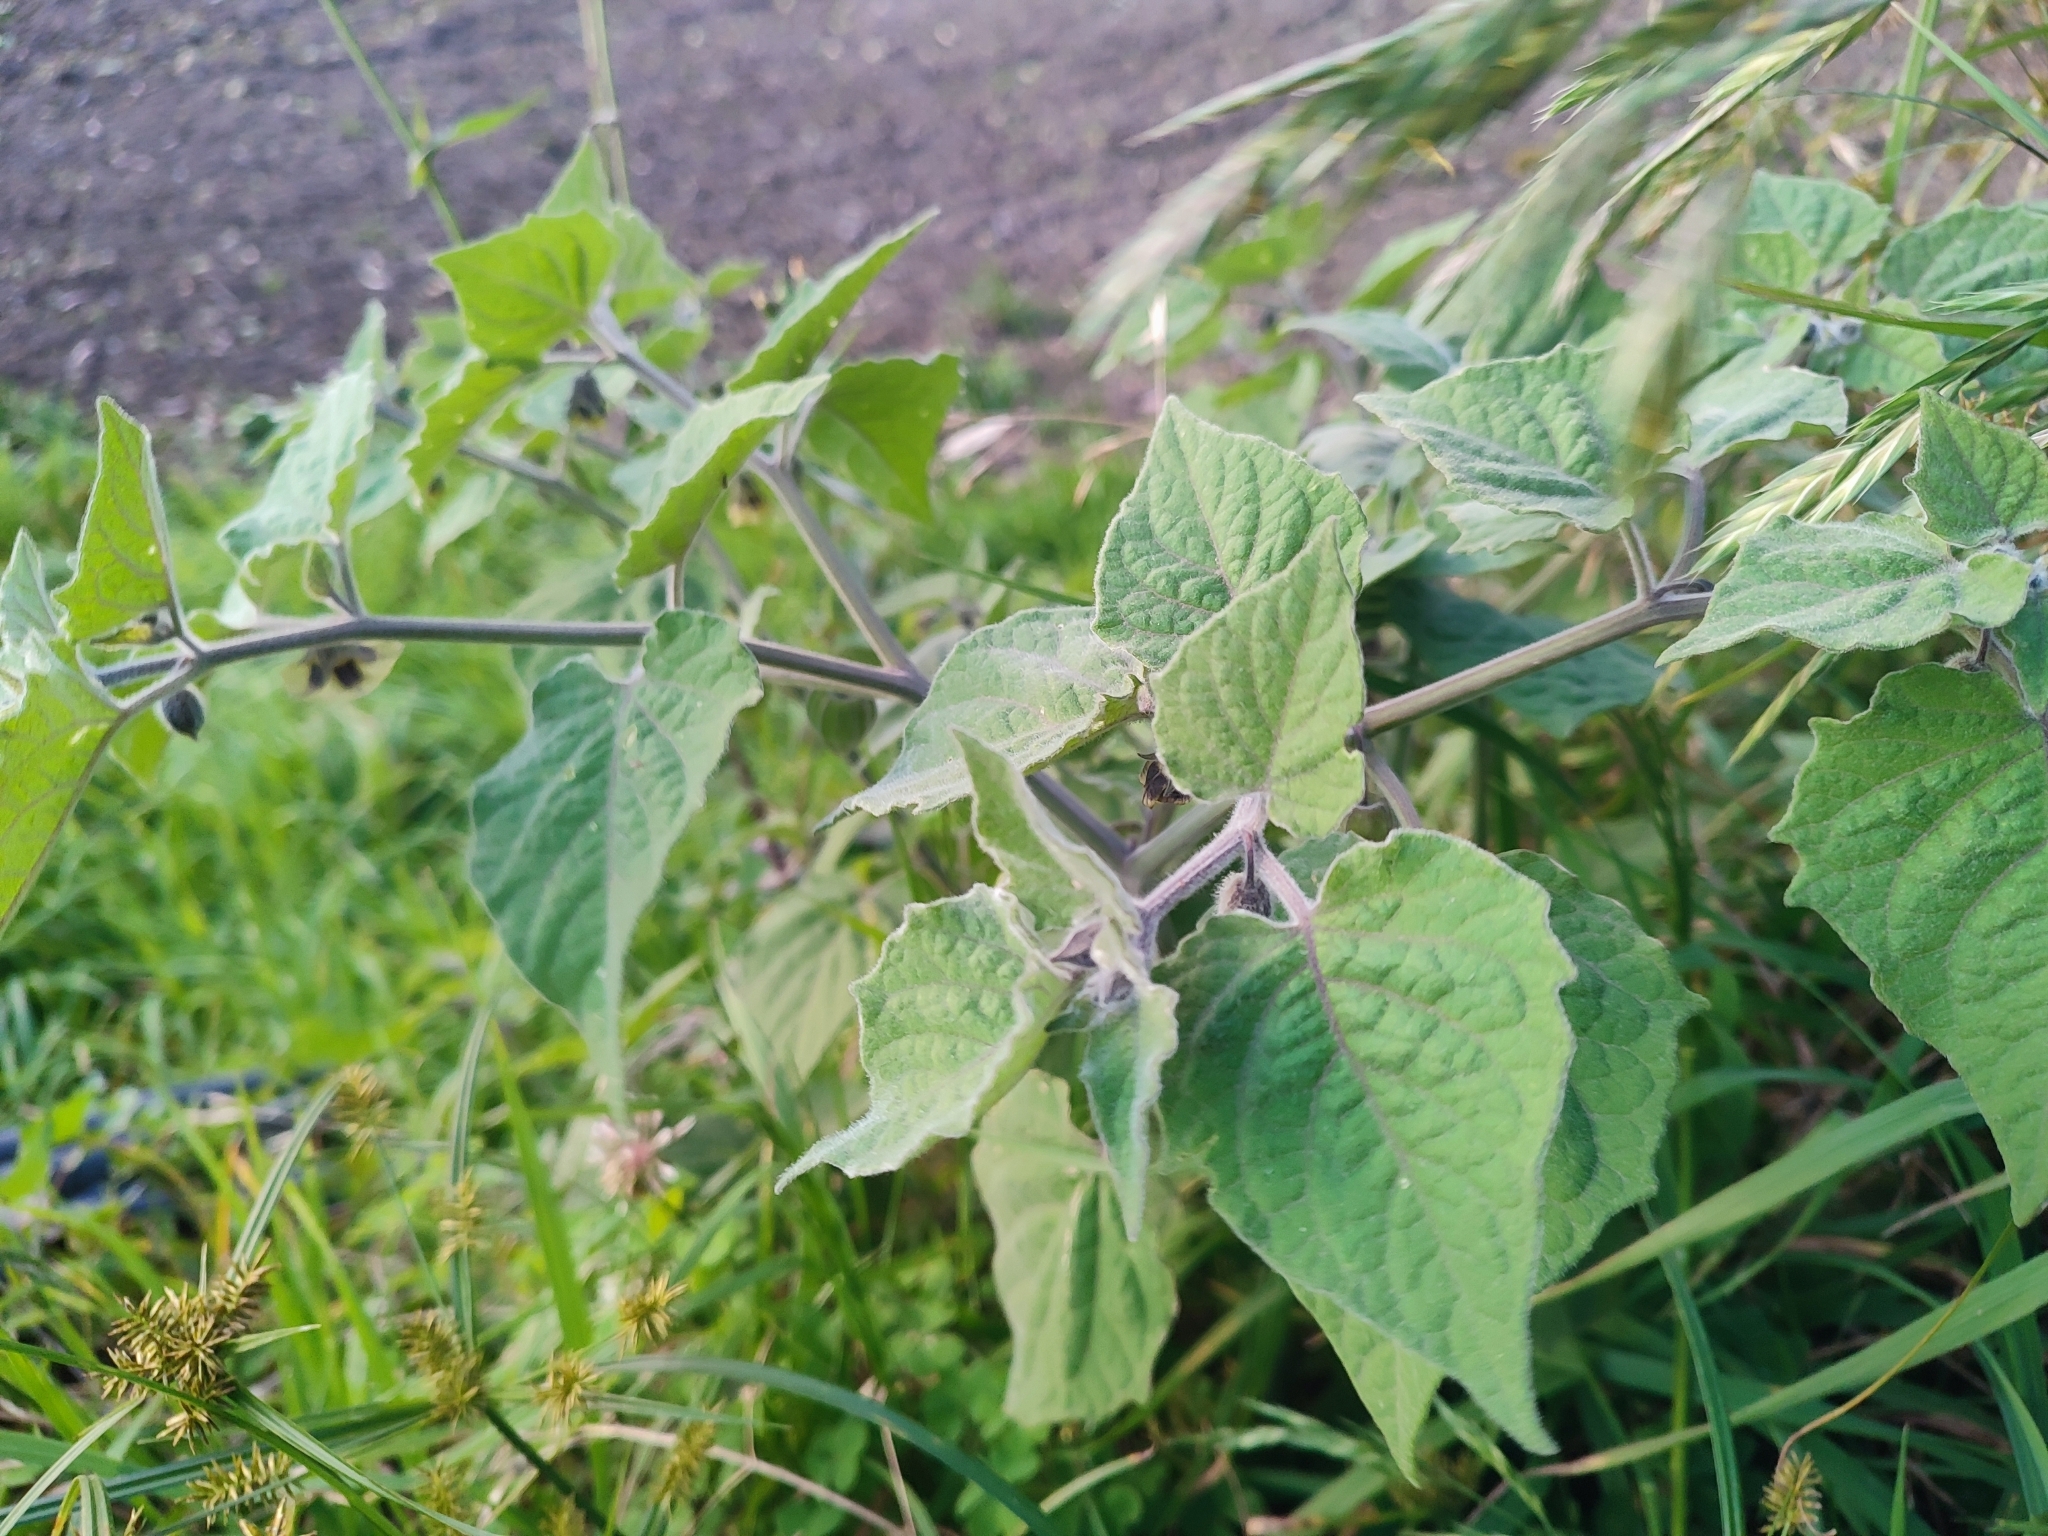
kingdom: Plantae
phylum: Tracheophyta
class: Magnoliopsida
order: Solanales
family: Solanaceae
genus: Physalis
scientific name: Physalis peruviana
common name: Cape-gooseberry
